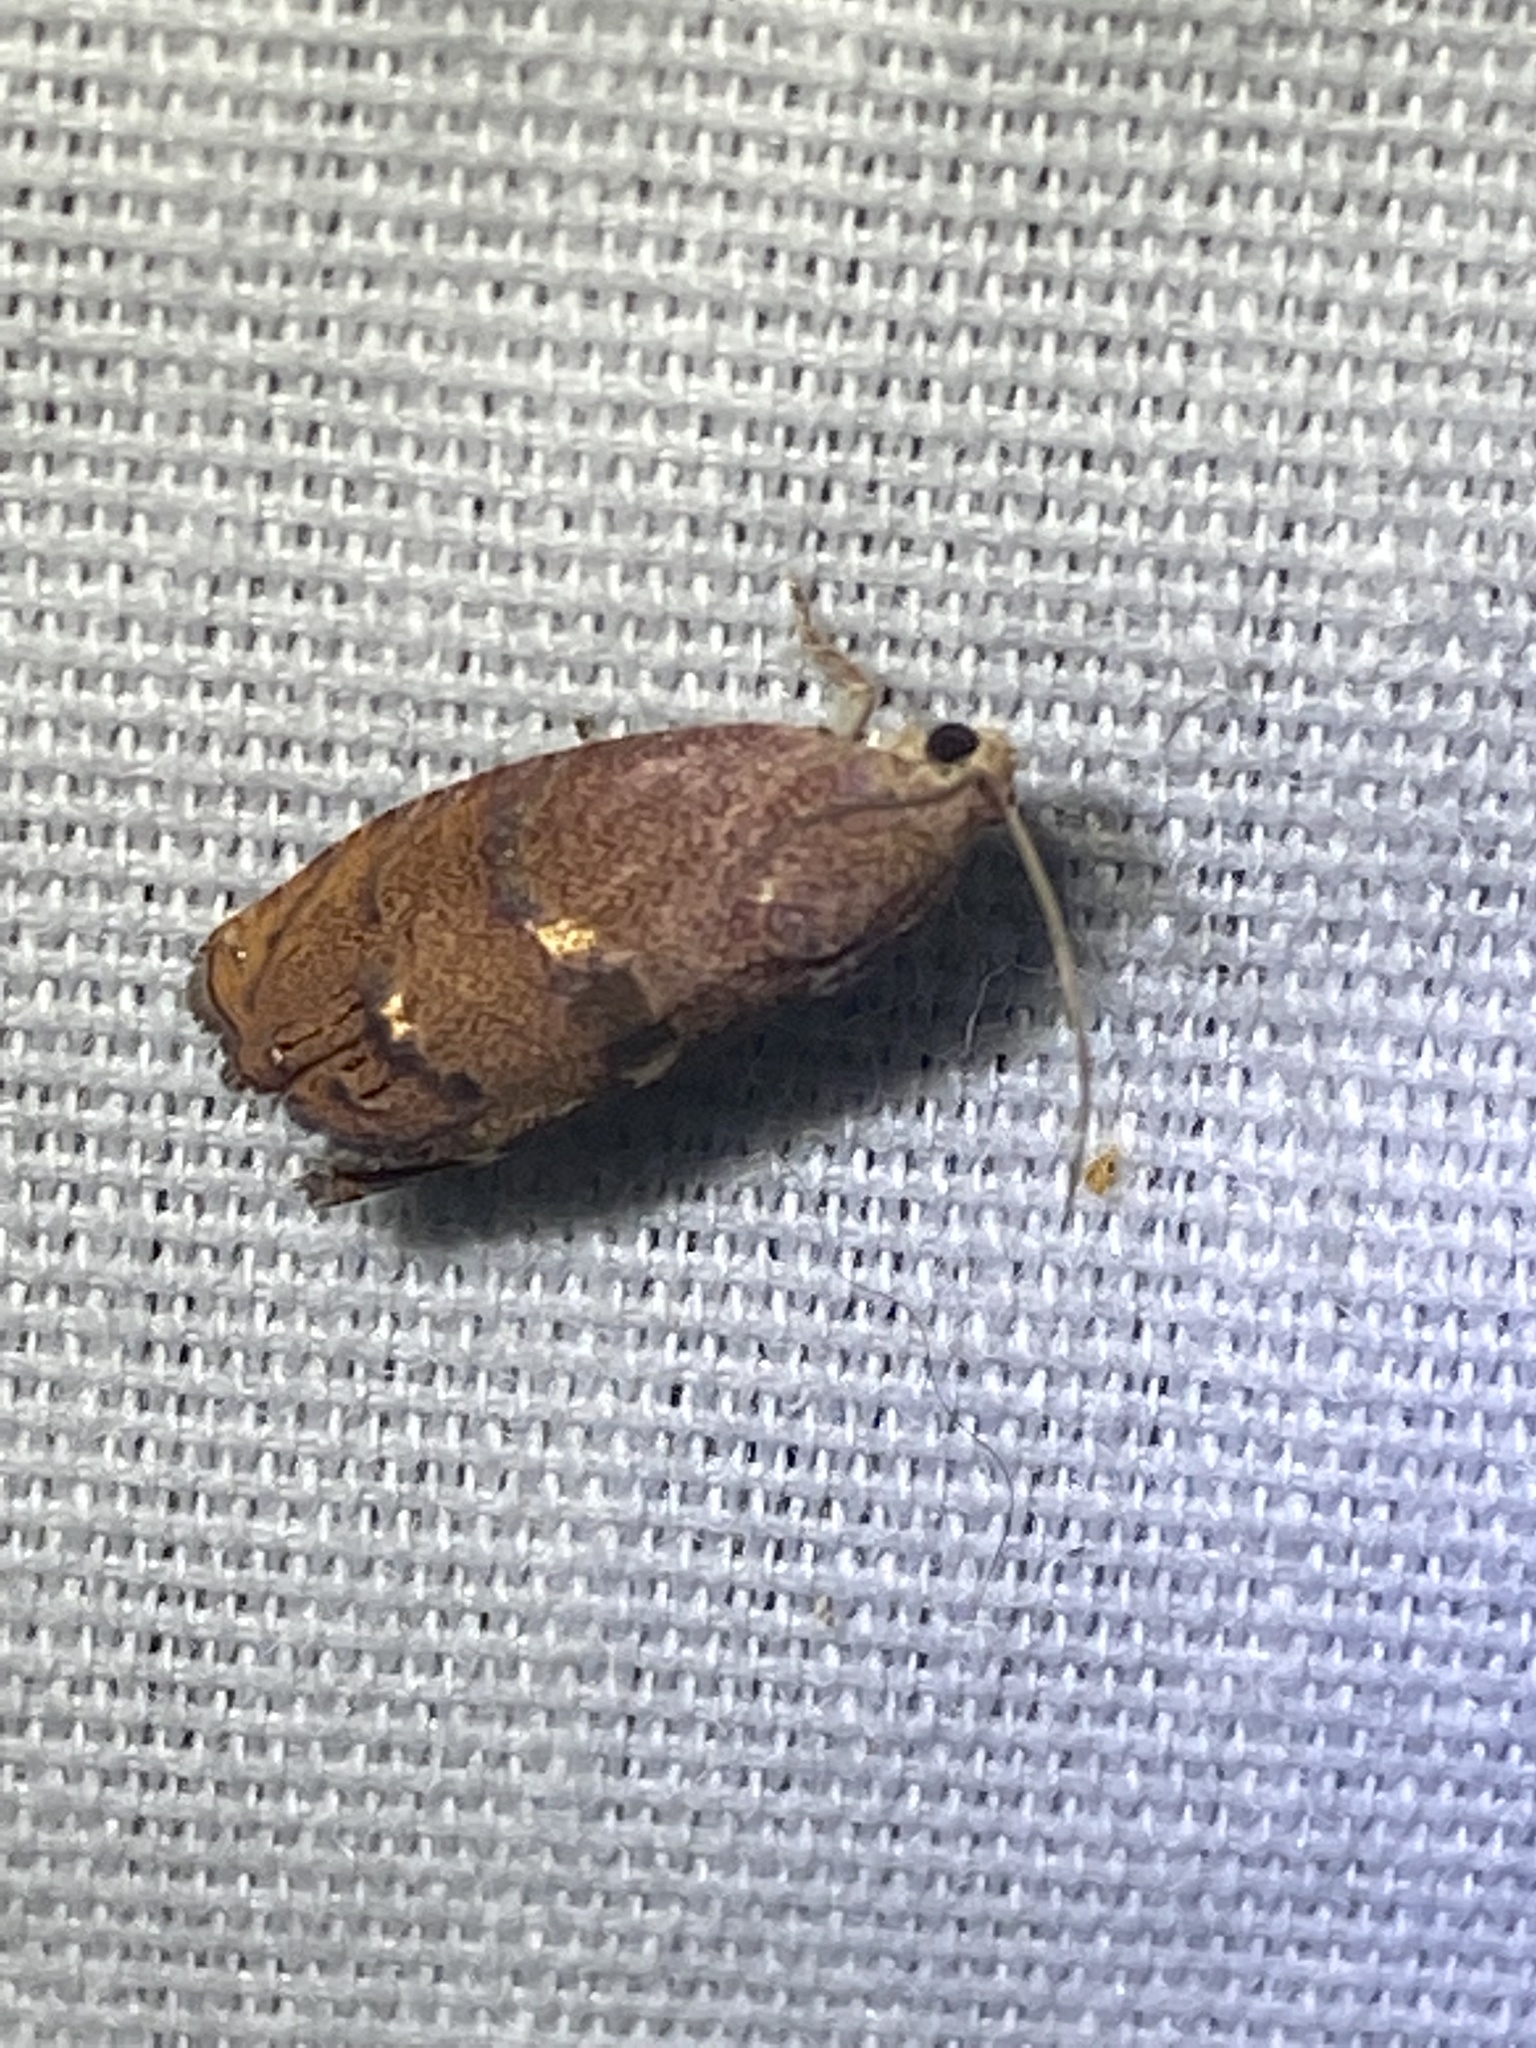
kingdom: Animalia
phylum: Arthropoda
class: Insecta
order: Lepidoptera
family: Tortricidae
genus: Cydia
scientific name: Cydia latiferreana
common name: Filbertworm moth
